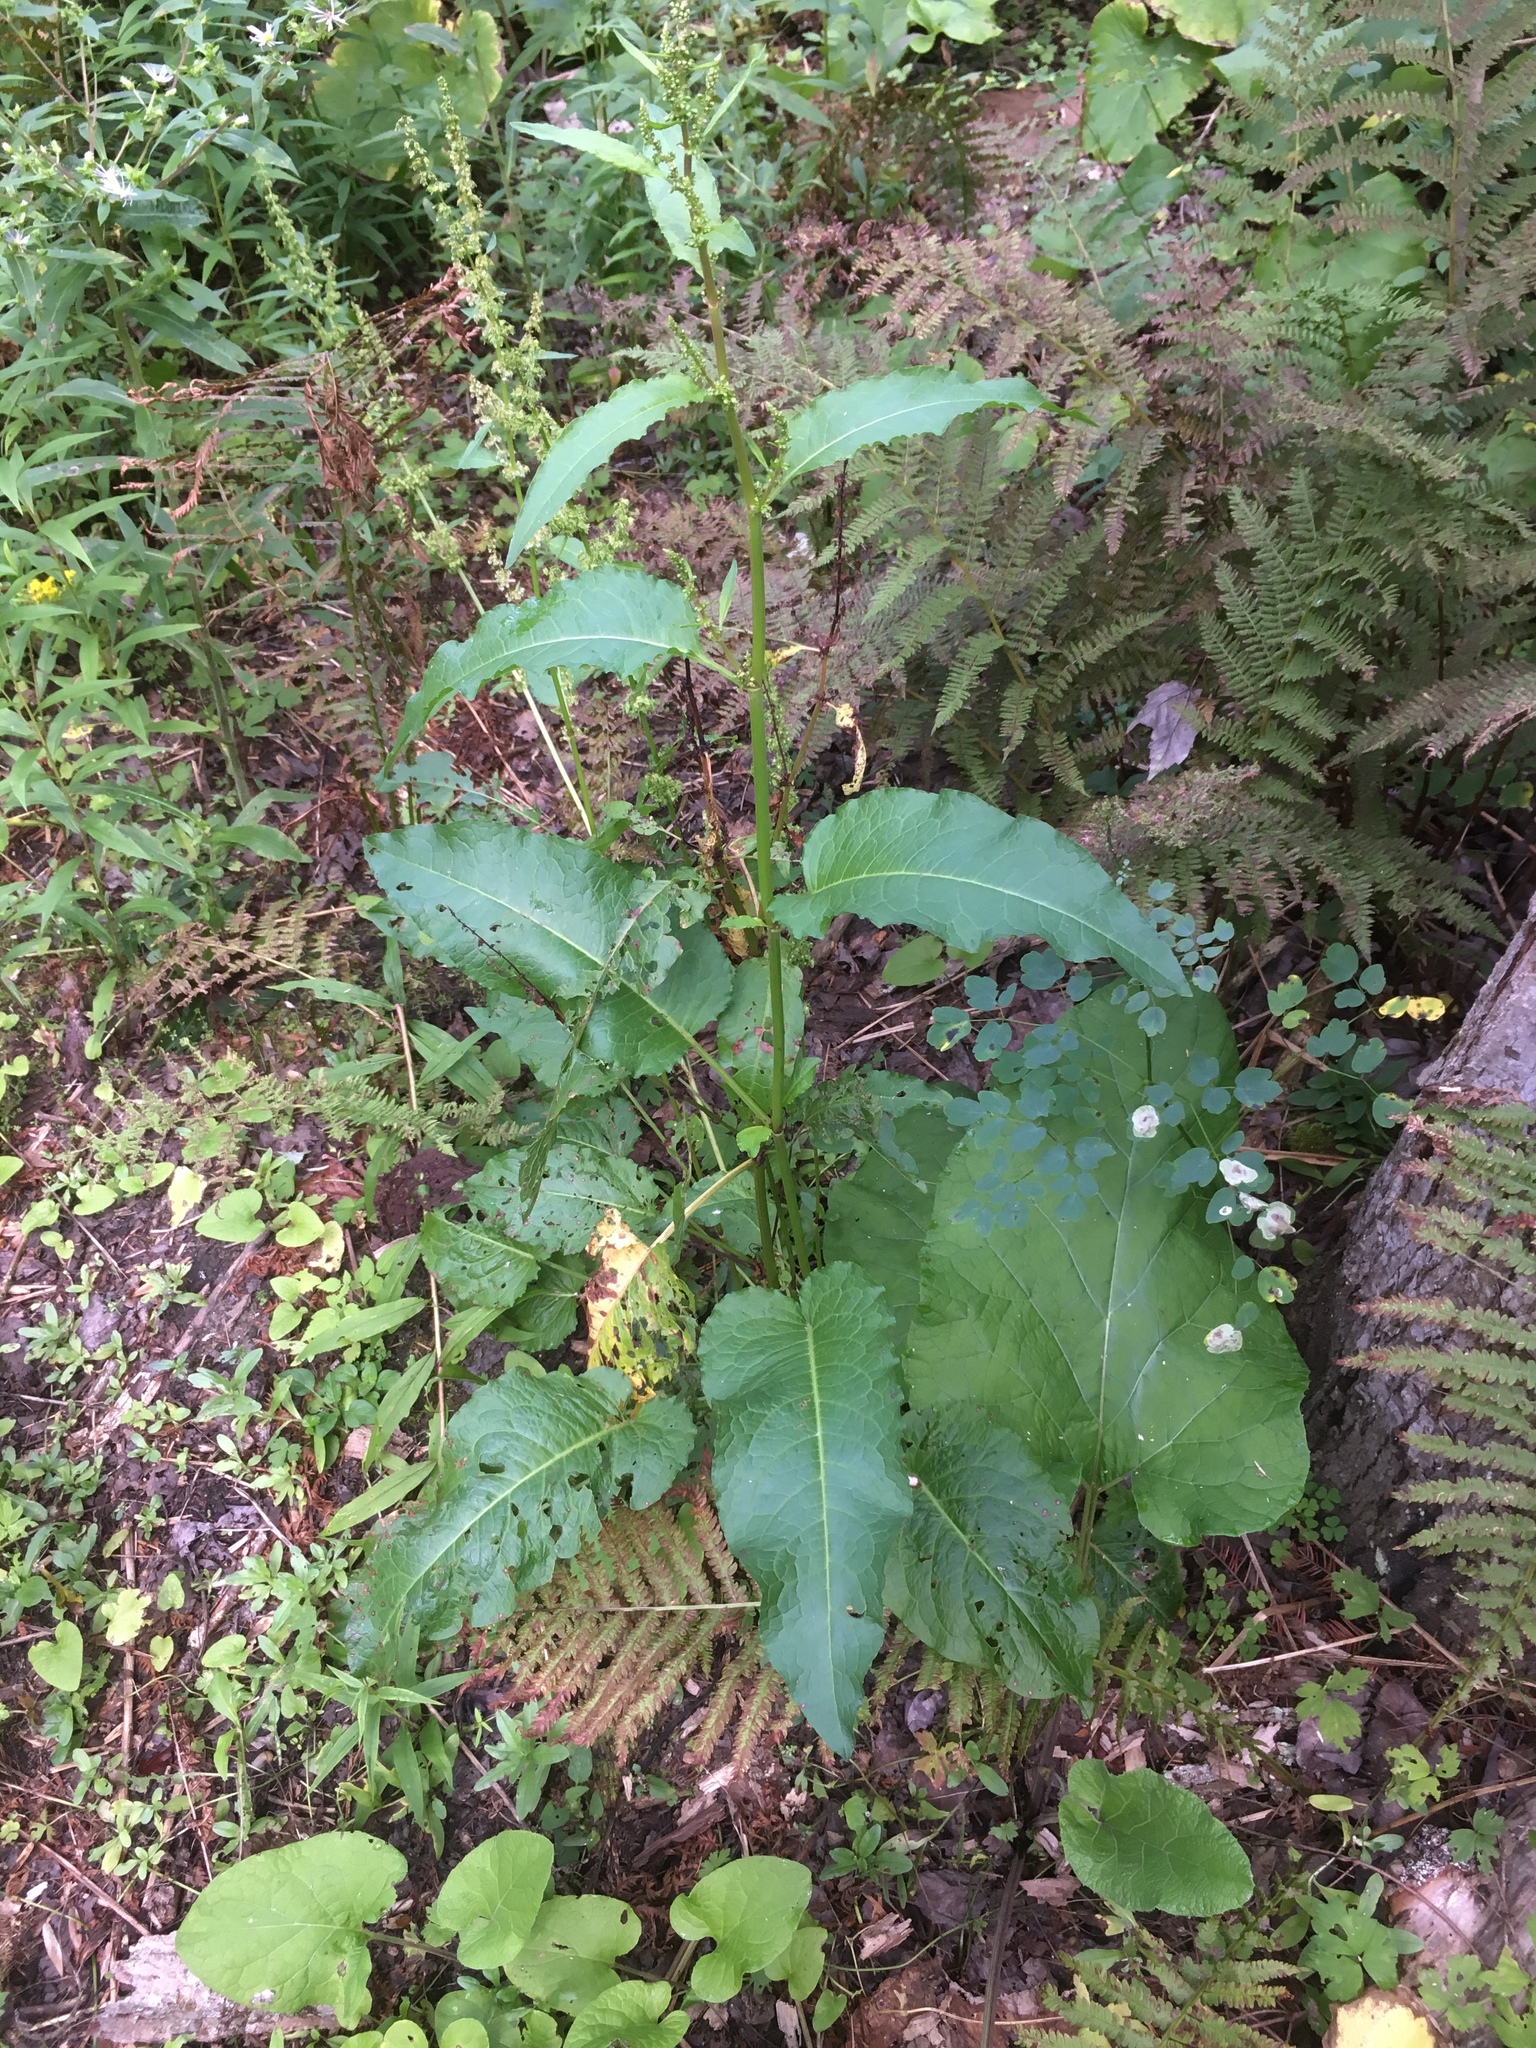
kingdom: Plantae
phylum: Tracheophyta
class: Magnoliopsida
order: Caryophyllales
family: Polygonaceae
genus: Rumex
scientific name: Rumex obtusifolius
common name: Bitter dock
